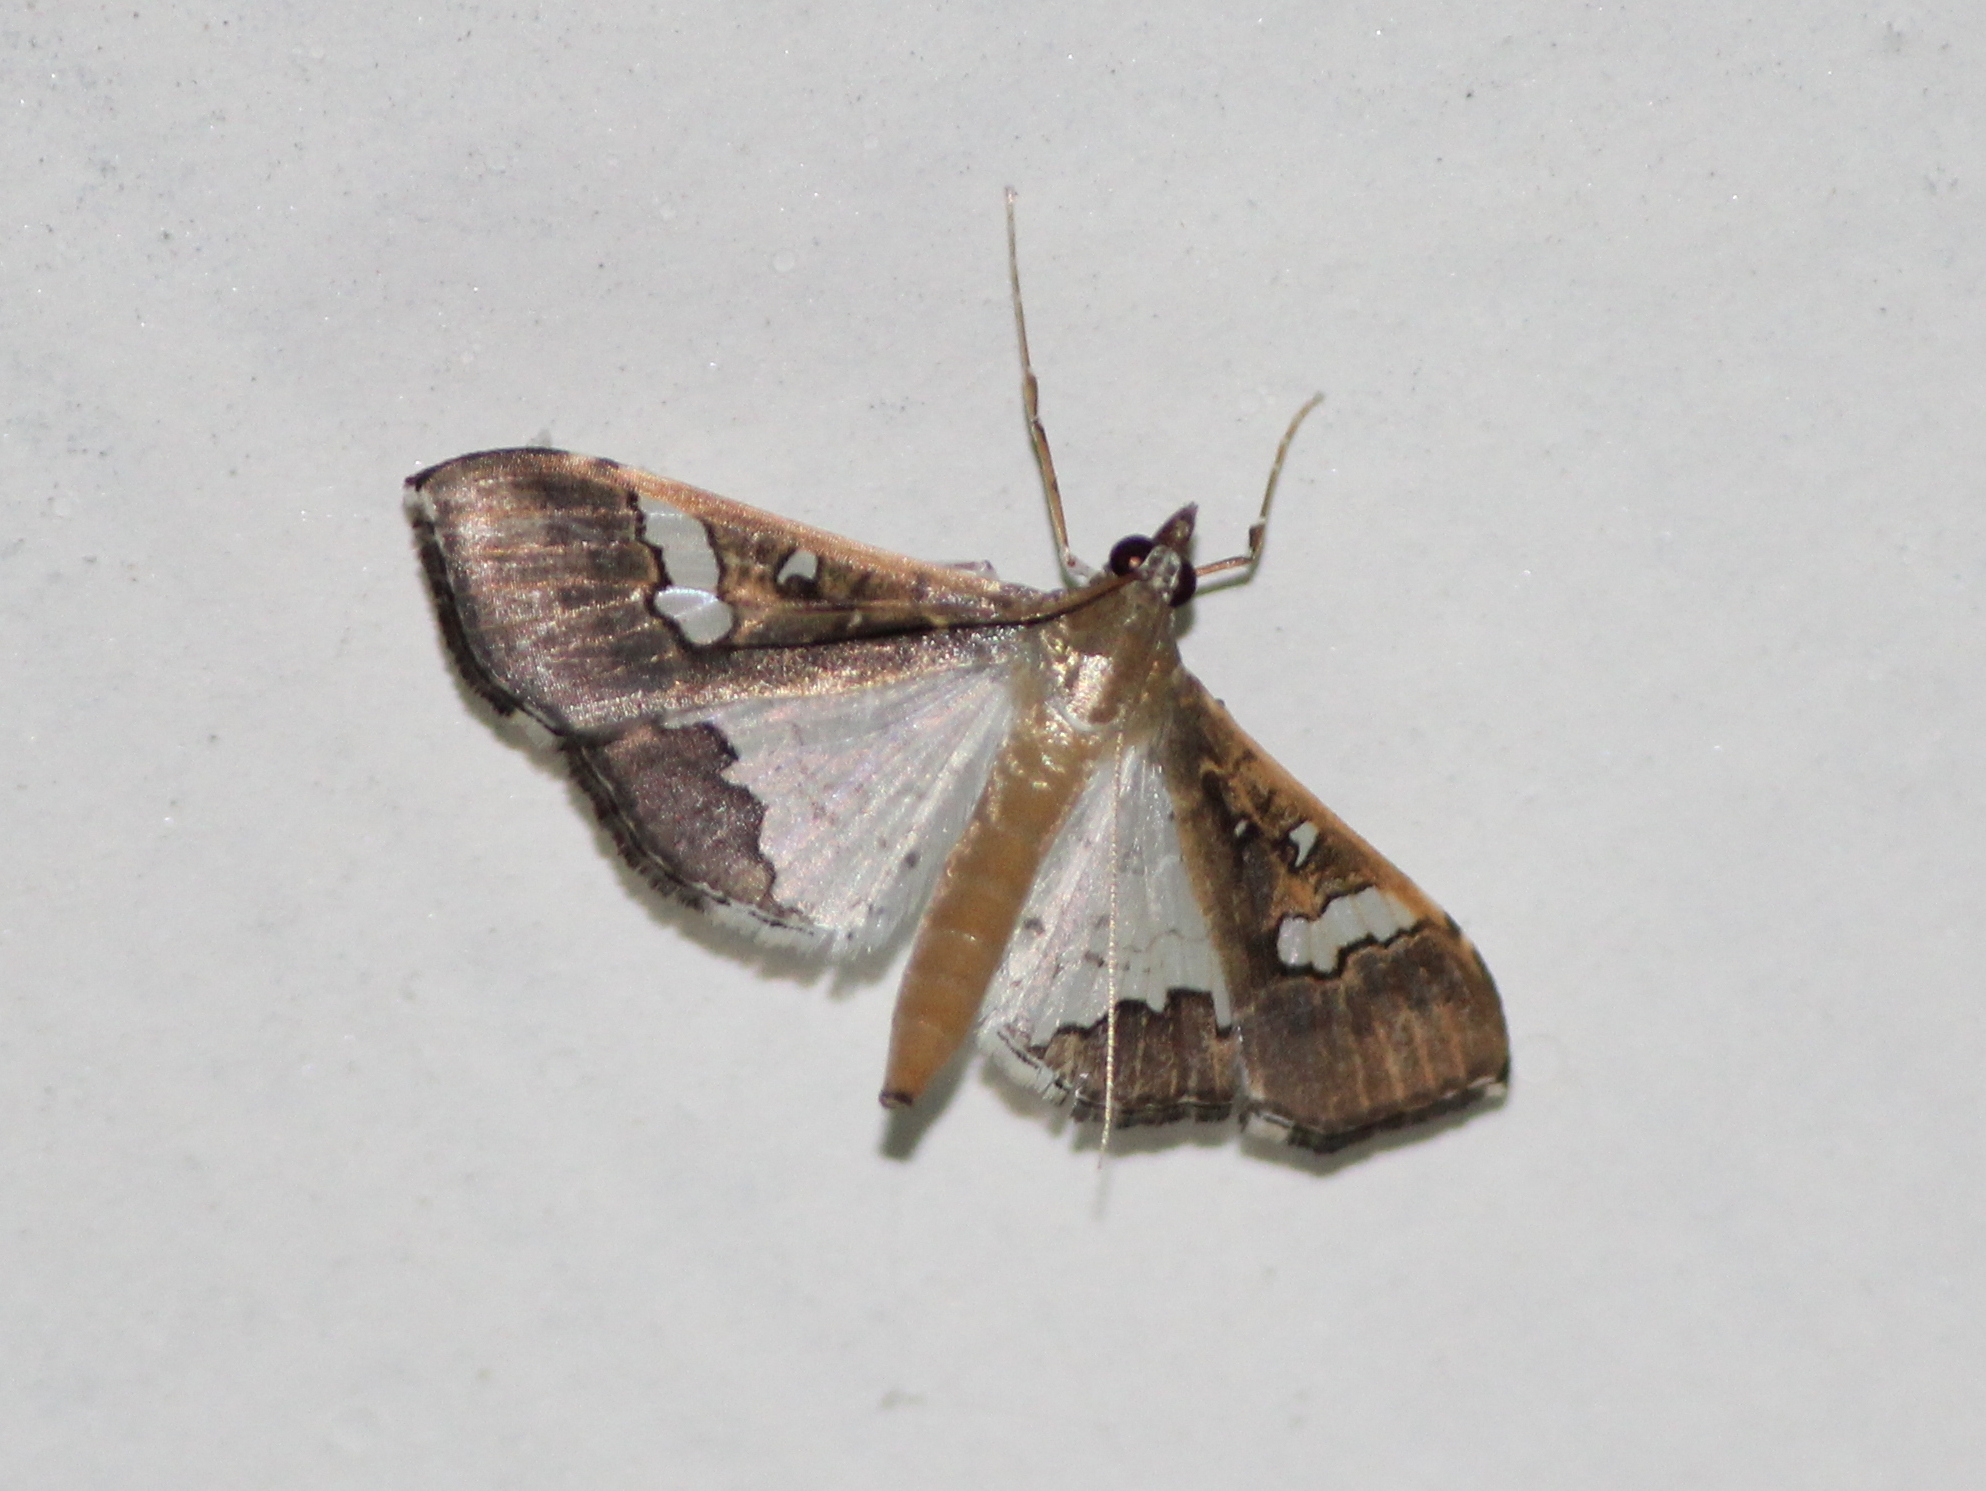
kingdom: Animalia
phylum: Arthropoda
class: Insecta
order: Lepidoptera
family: Crambidae
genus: Maruca
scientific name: Maruca vitrata
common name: Maruca pod borer
